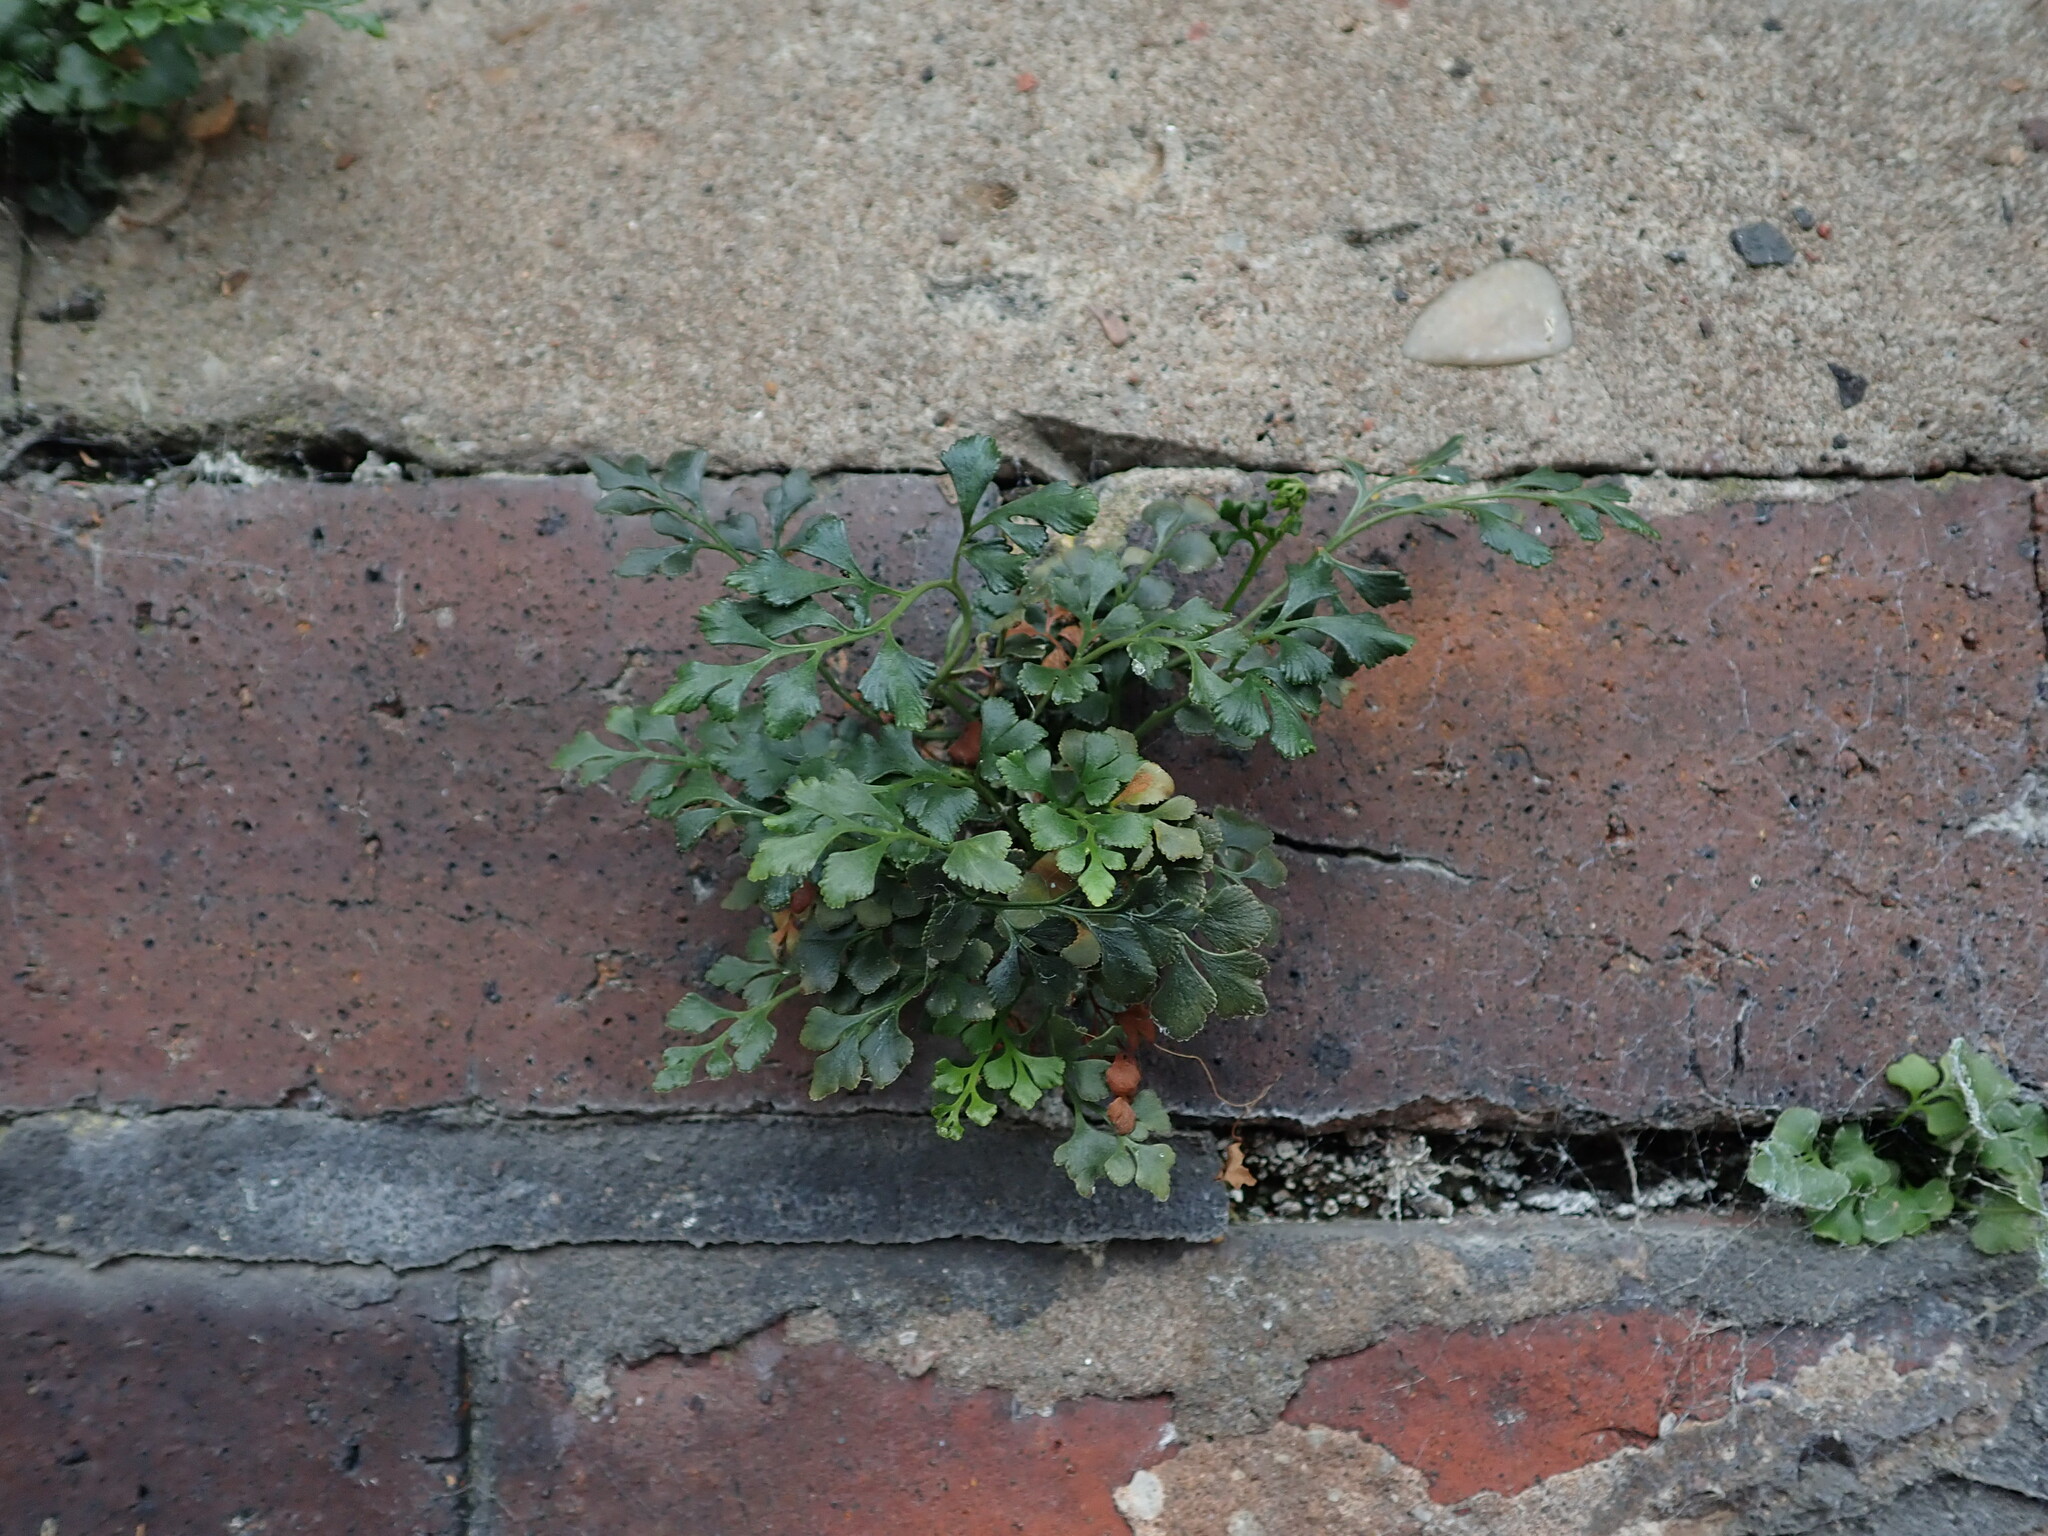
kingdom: Plantae
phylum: Tracheophyta
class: Polypodiopsida
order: Polypodiales
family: Aspleniaceae
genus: Asplenium
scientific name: Asplenium ruta-muraria
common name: Wall-rue
